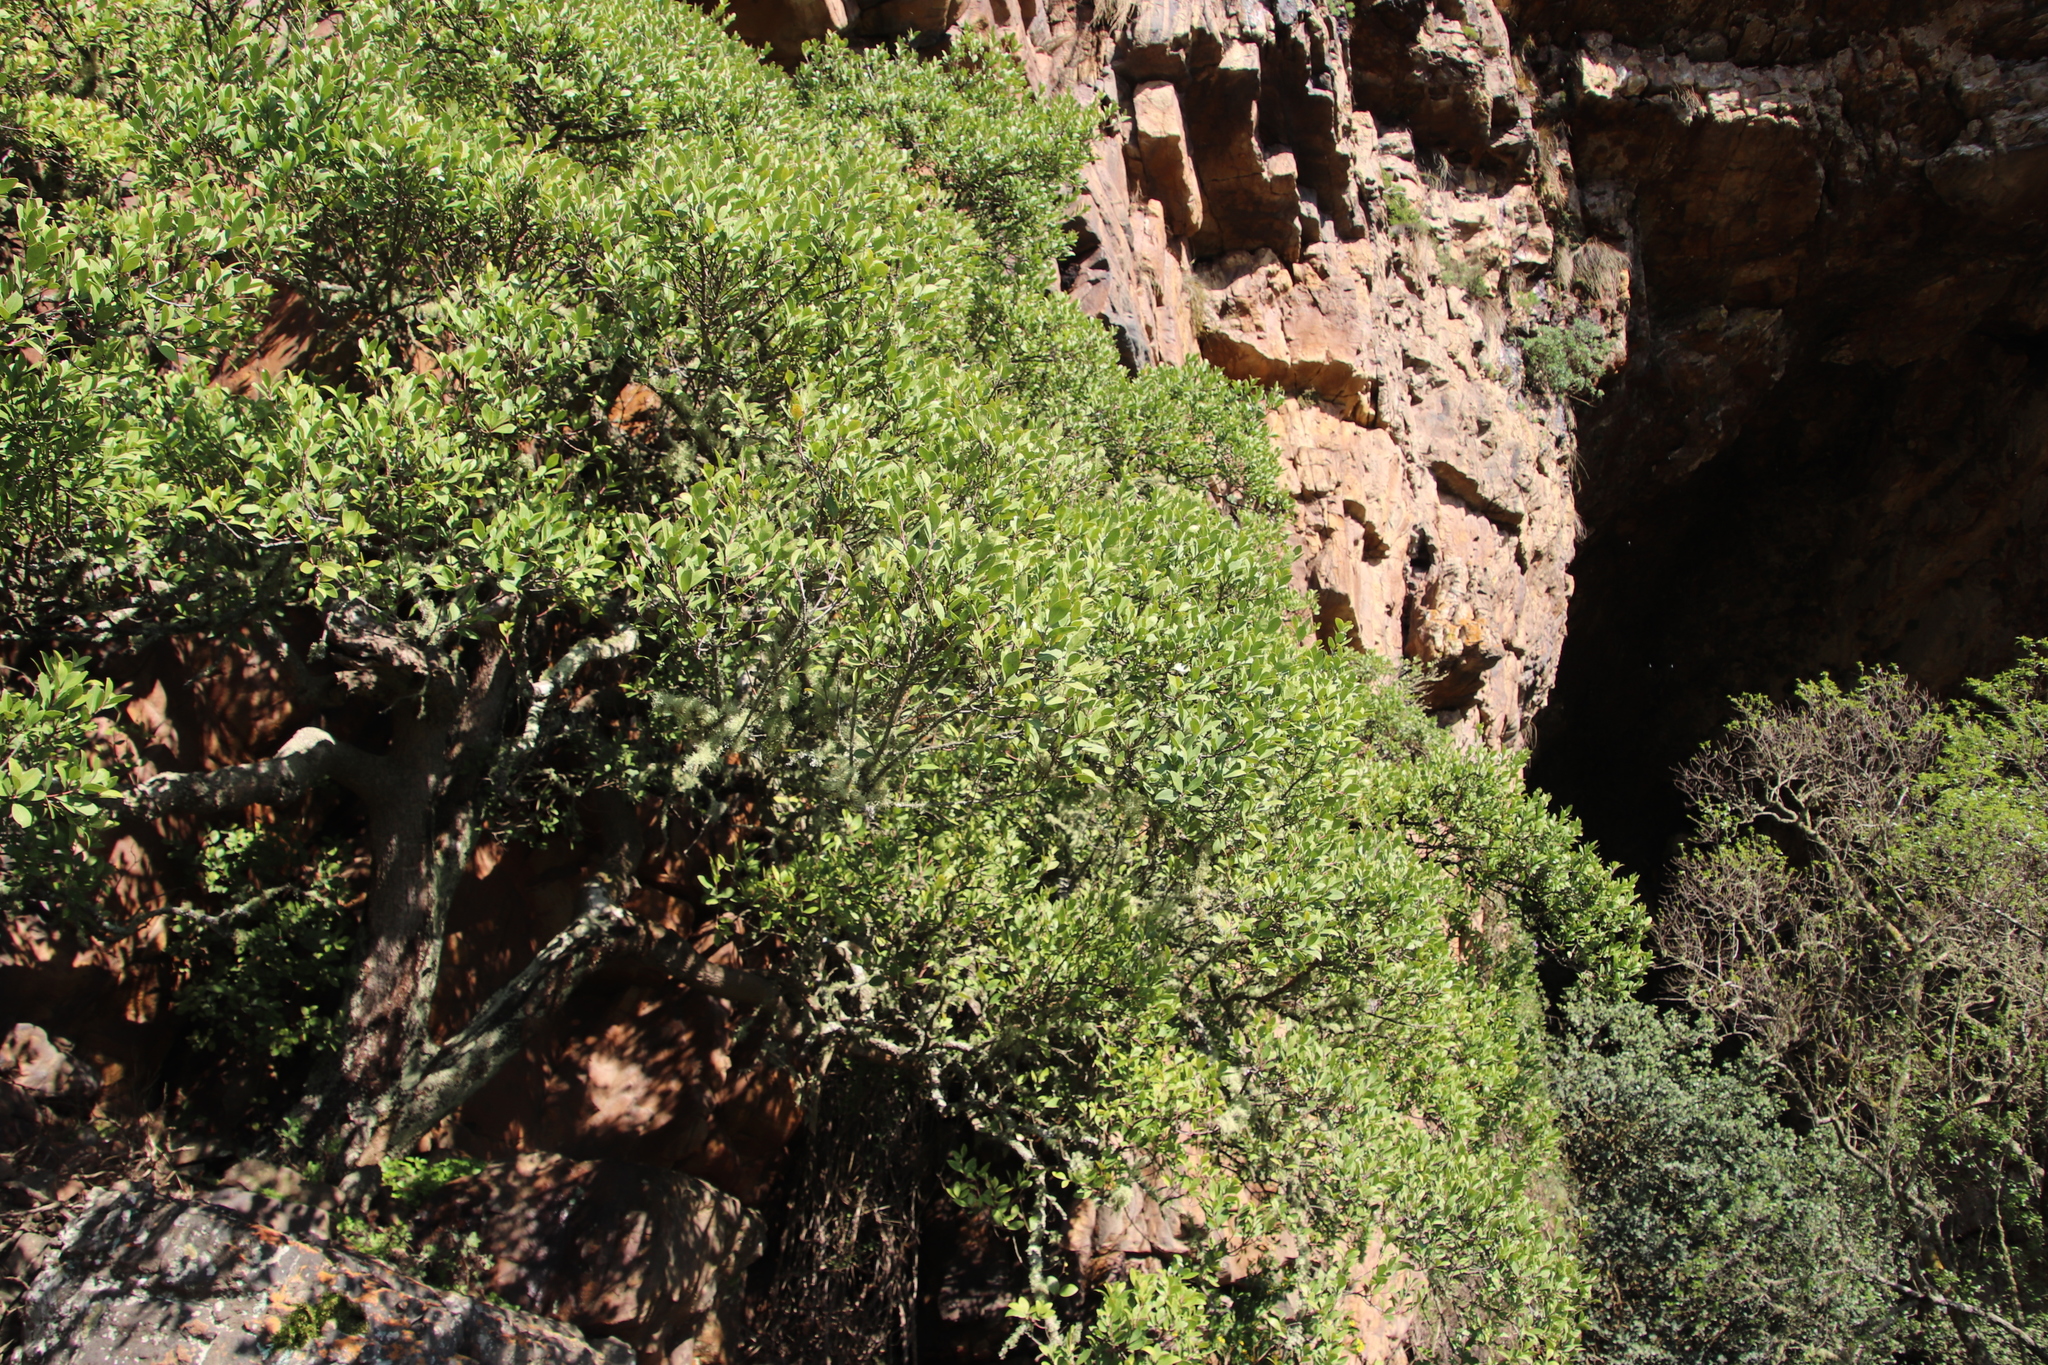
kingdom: Plantae
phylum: Tracheophyta
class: Magnoliopsida
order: Celastrales
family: Celastraceae
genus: Gymnosporia
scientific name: Gymnosporia laurina
